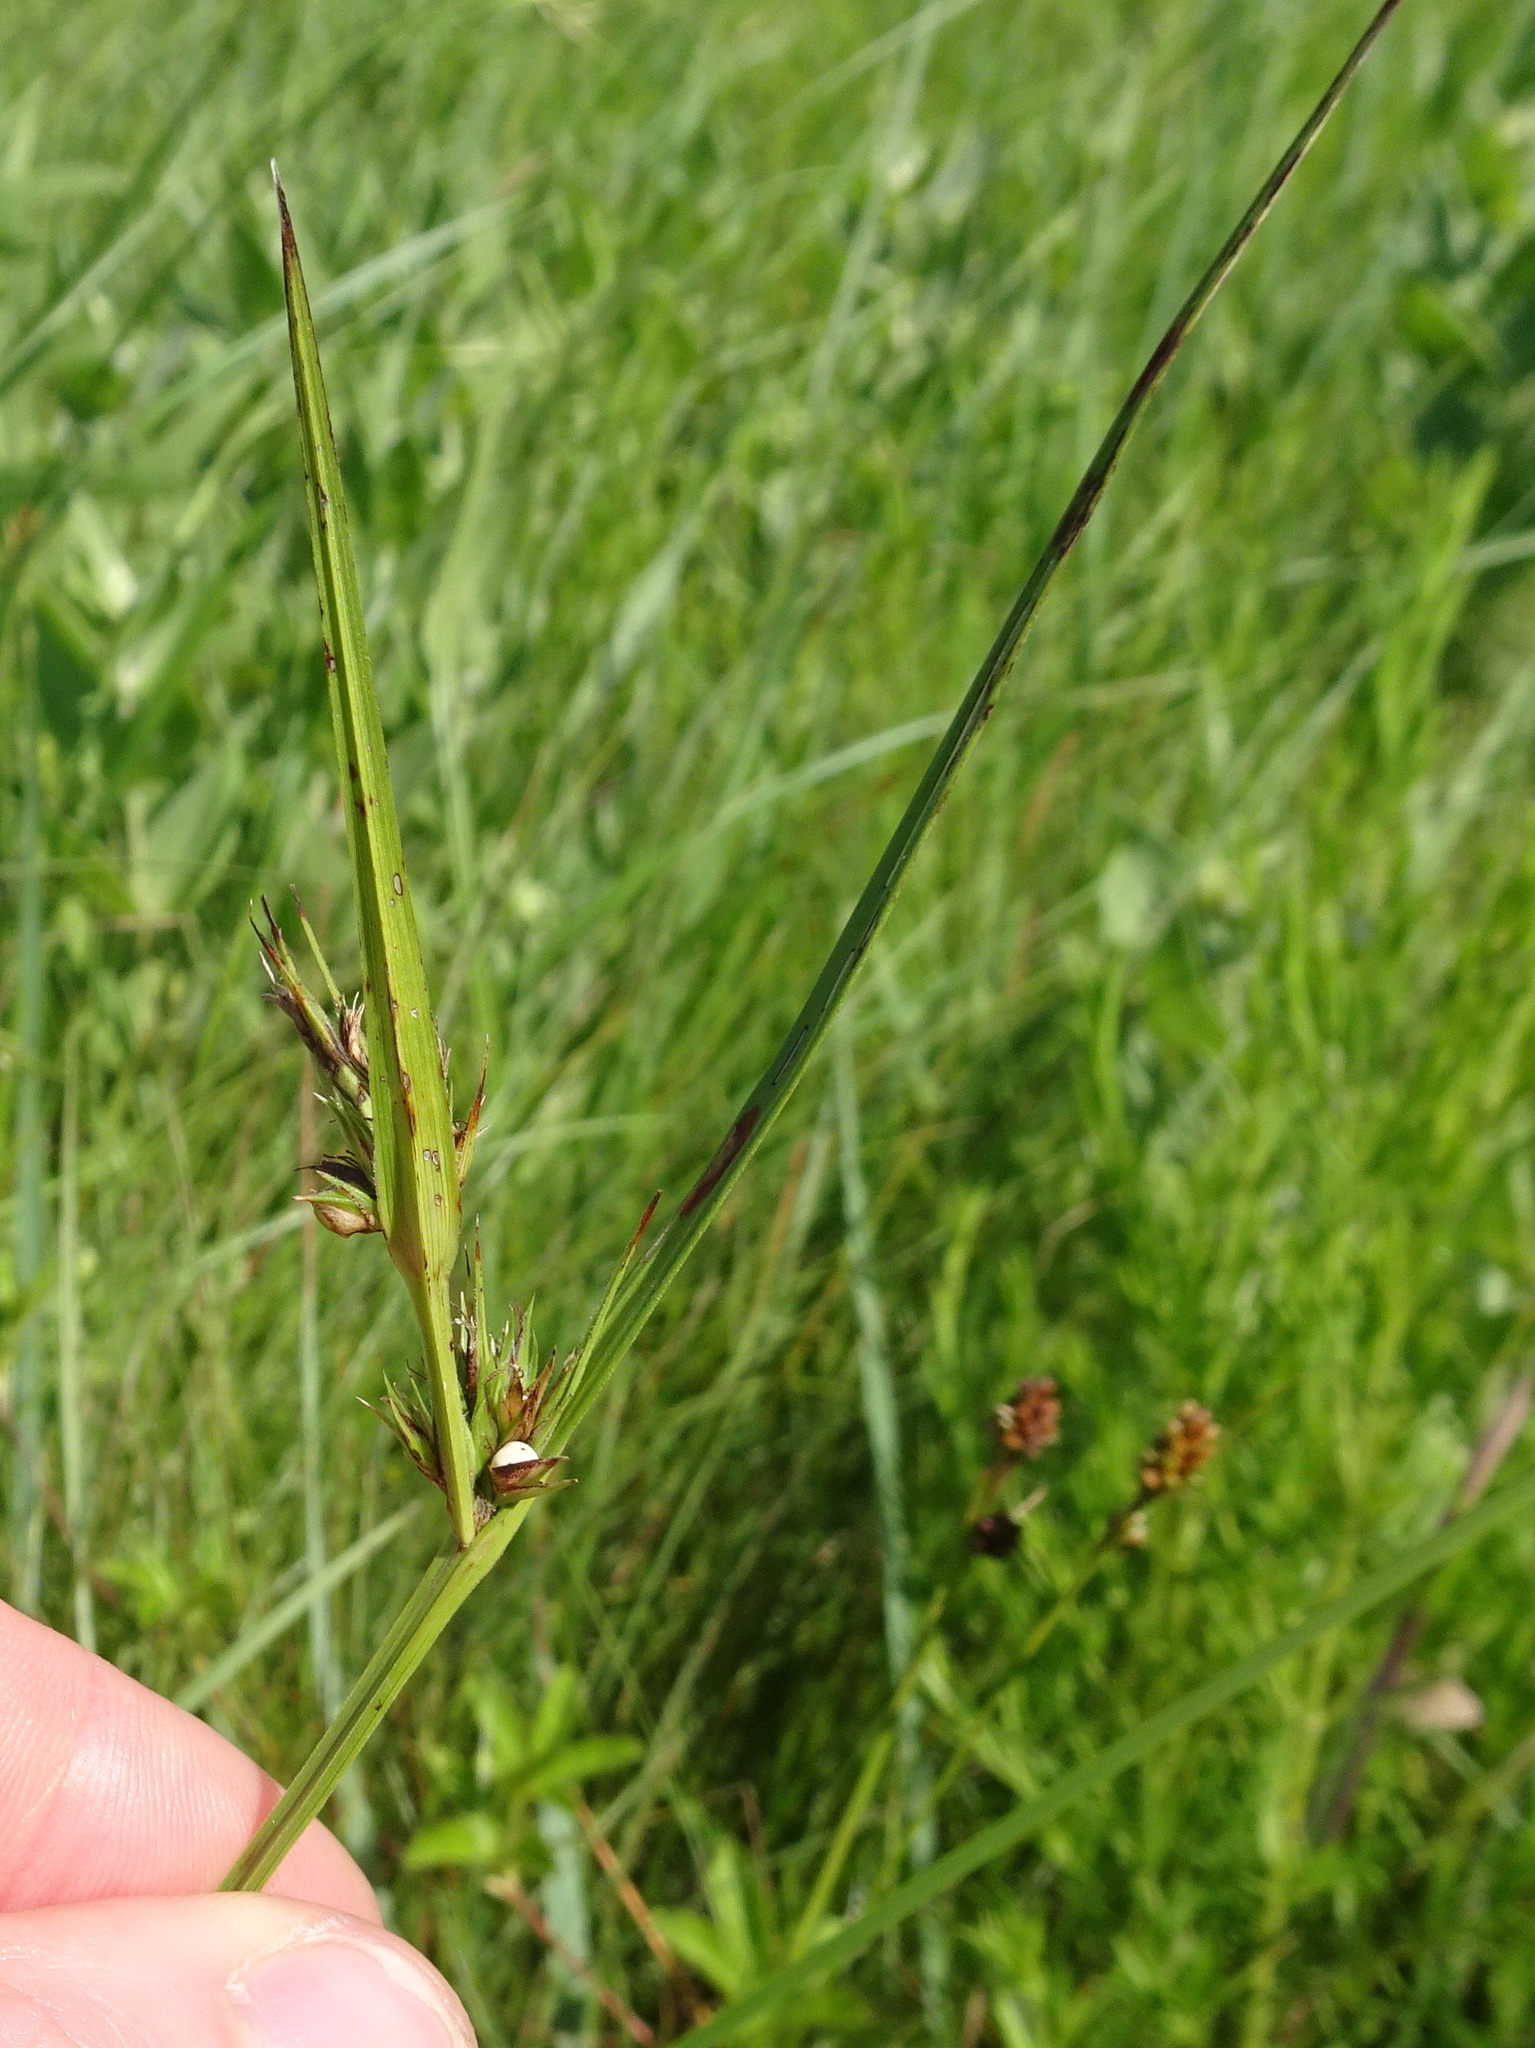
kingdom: Plantae
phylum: Tracheophyta
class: Liliopsida
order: Poales
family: Cyperaceae
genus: Scleria
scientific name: Scleria triglomerata
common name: Whip nutrush
